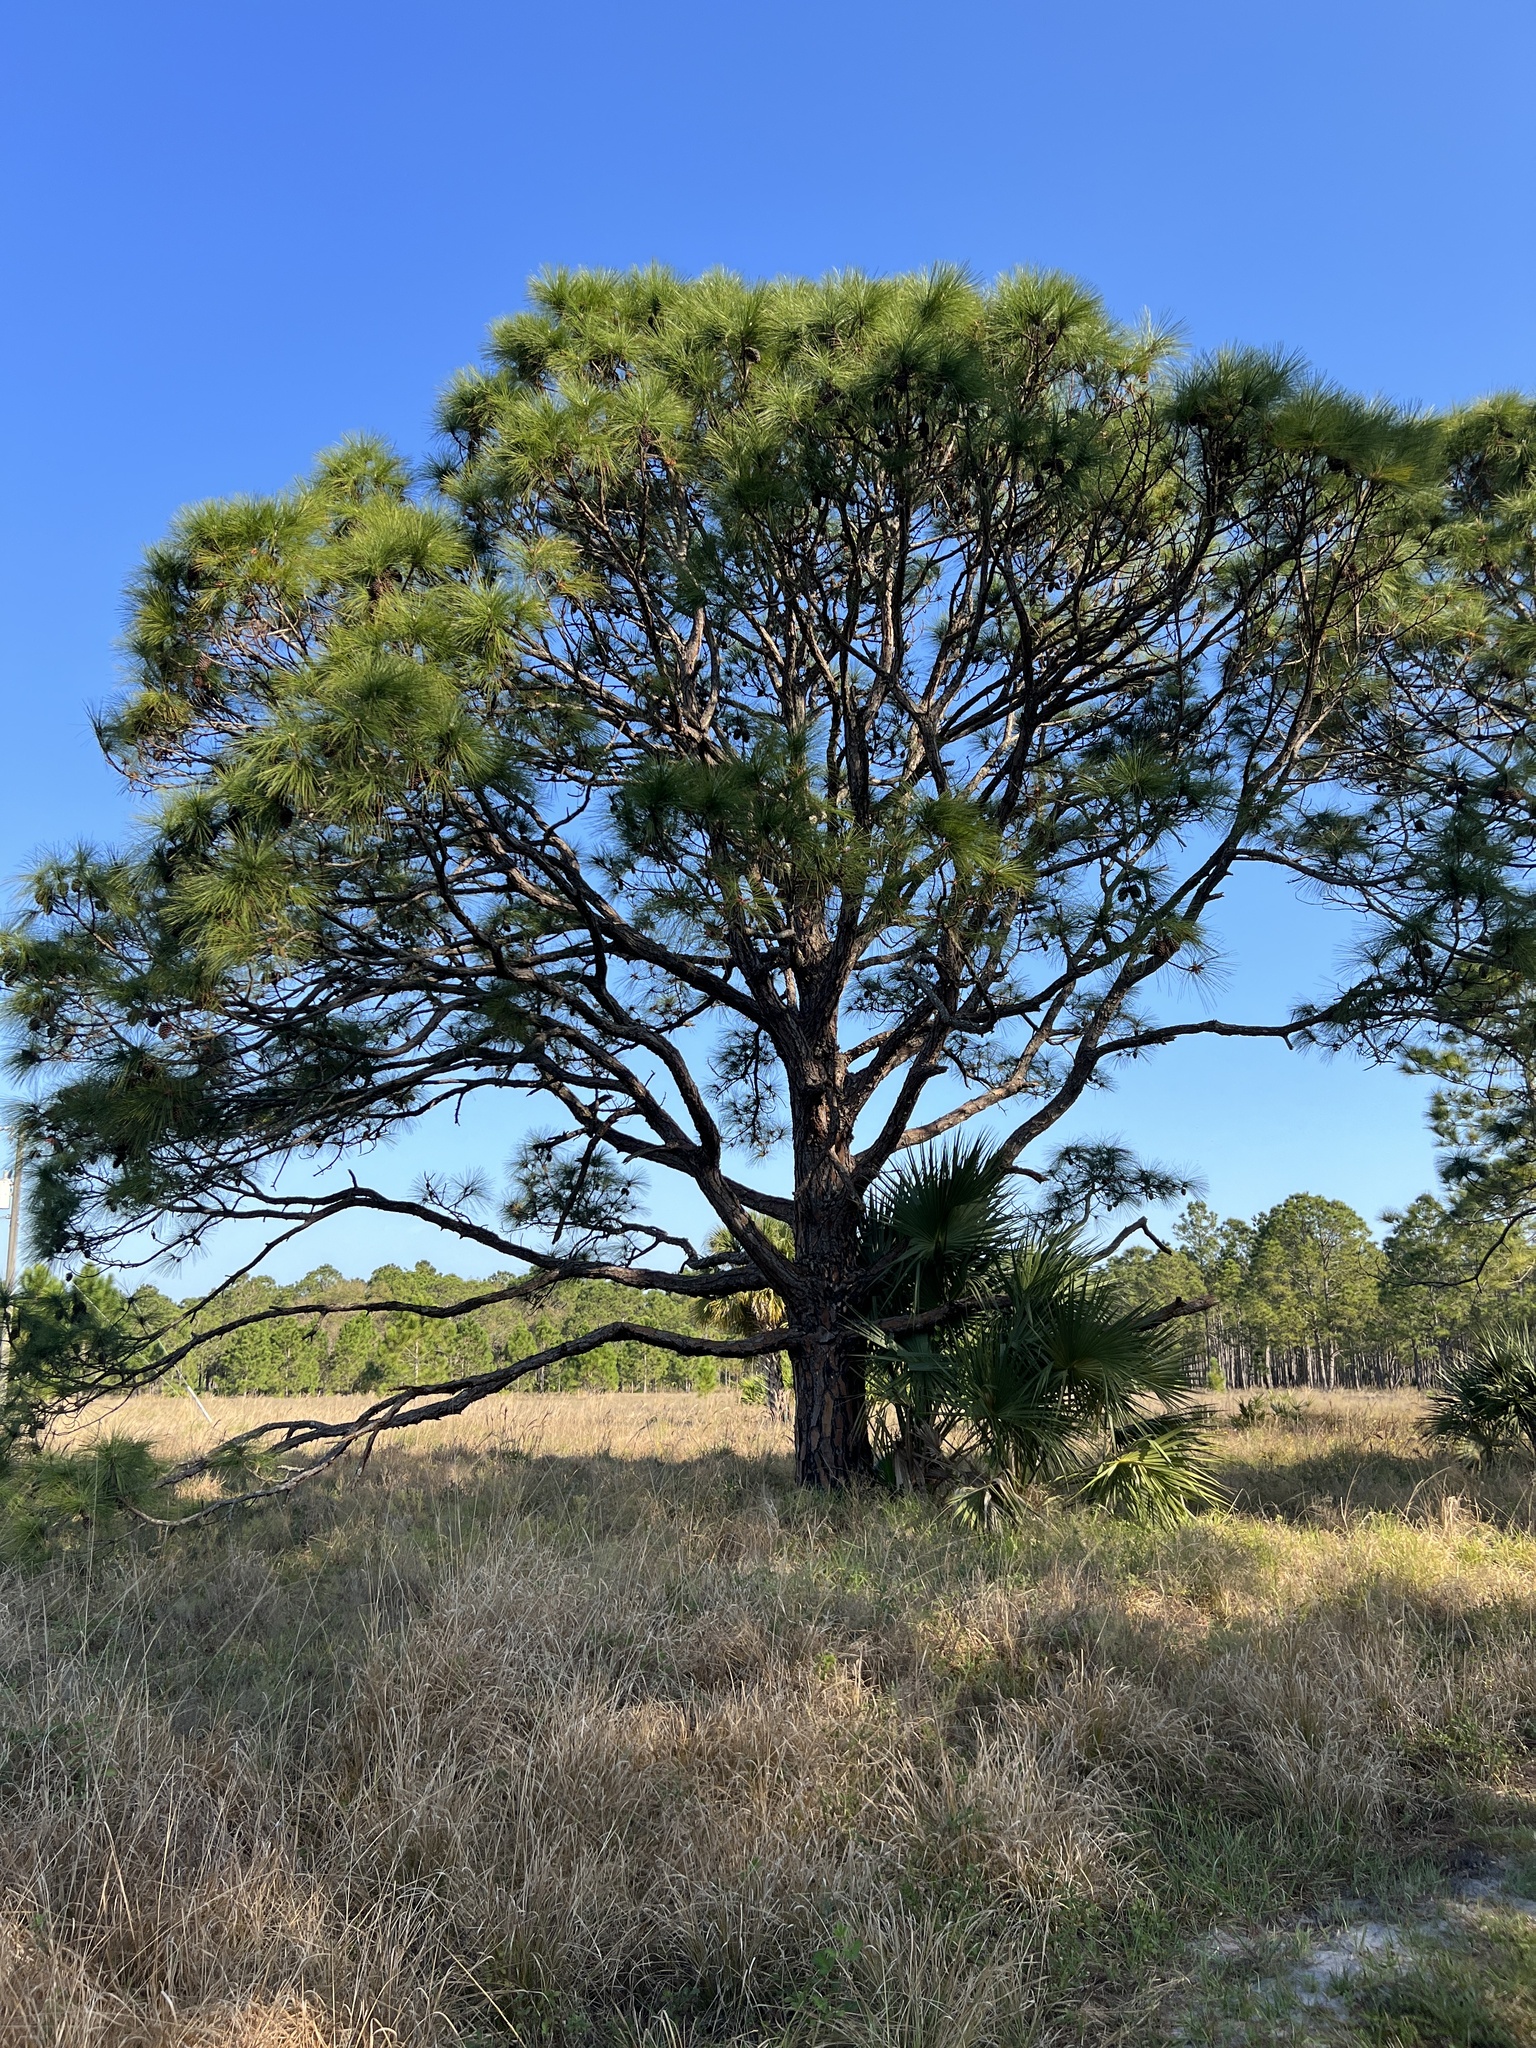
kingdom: Plantae
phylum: Tracheophyta
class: Pinopsida
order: Pinales
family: Pinaceae
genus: Pinus
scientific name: Pinus elliottii
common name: Slash pine
